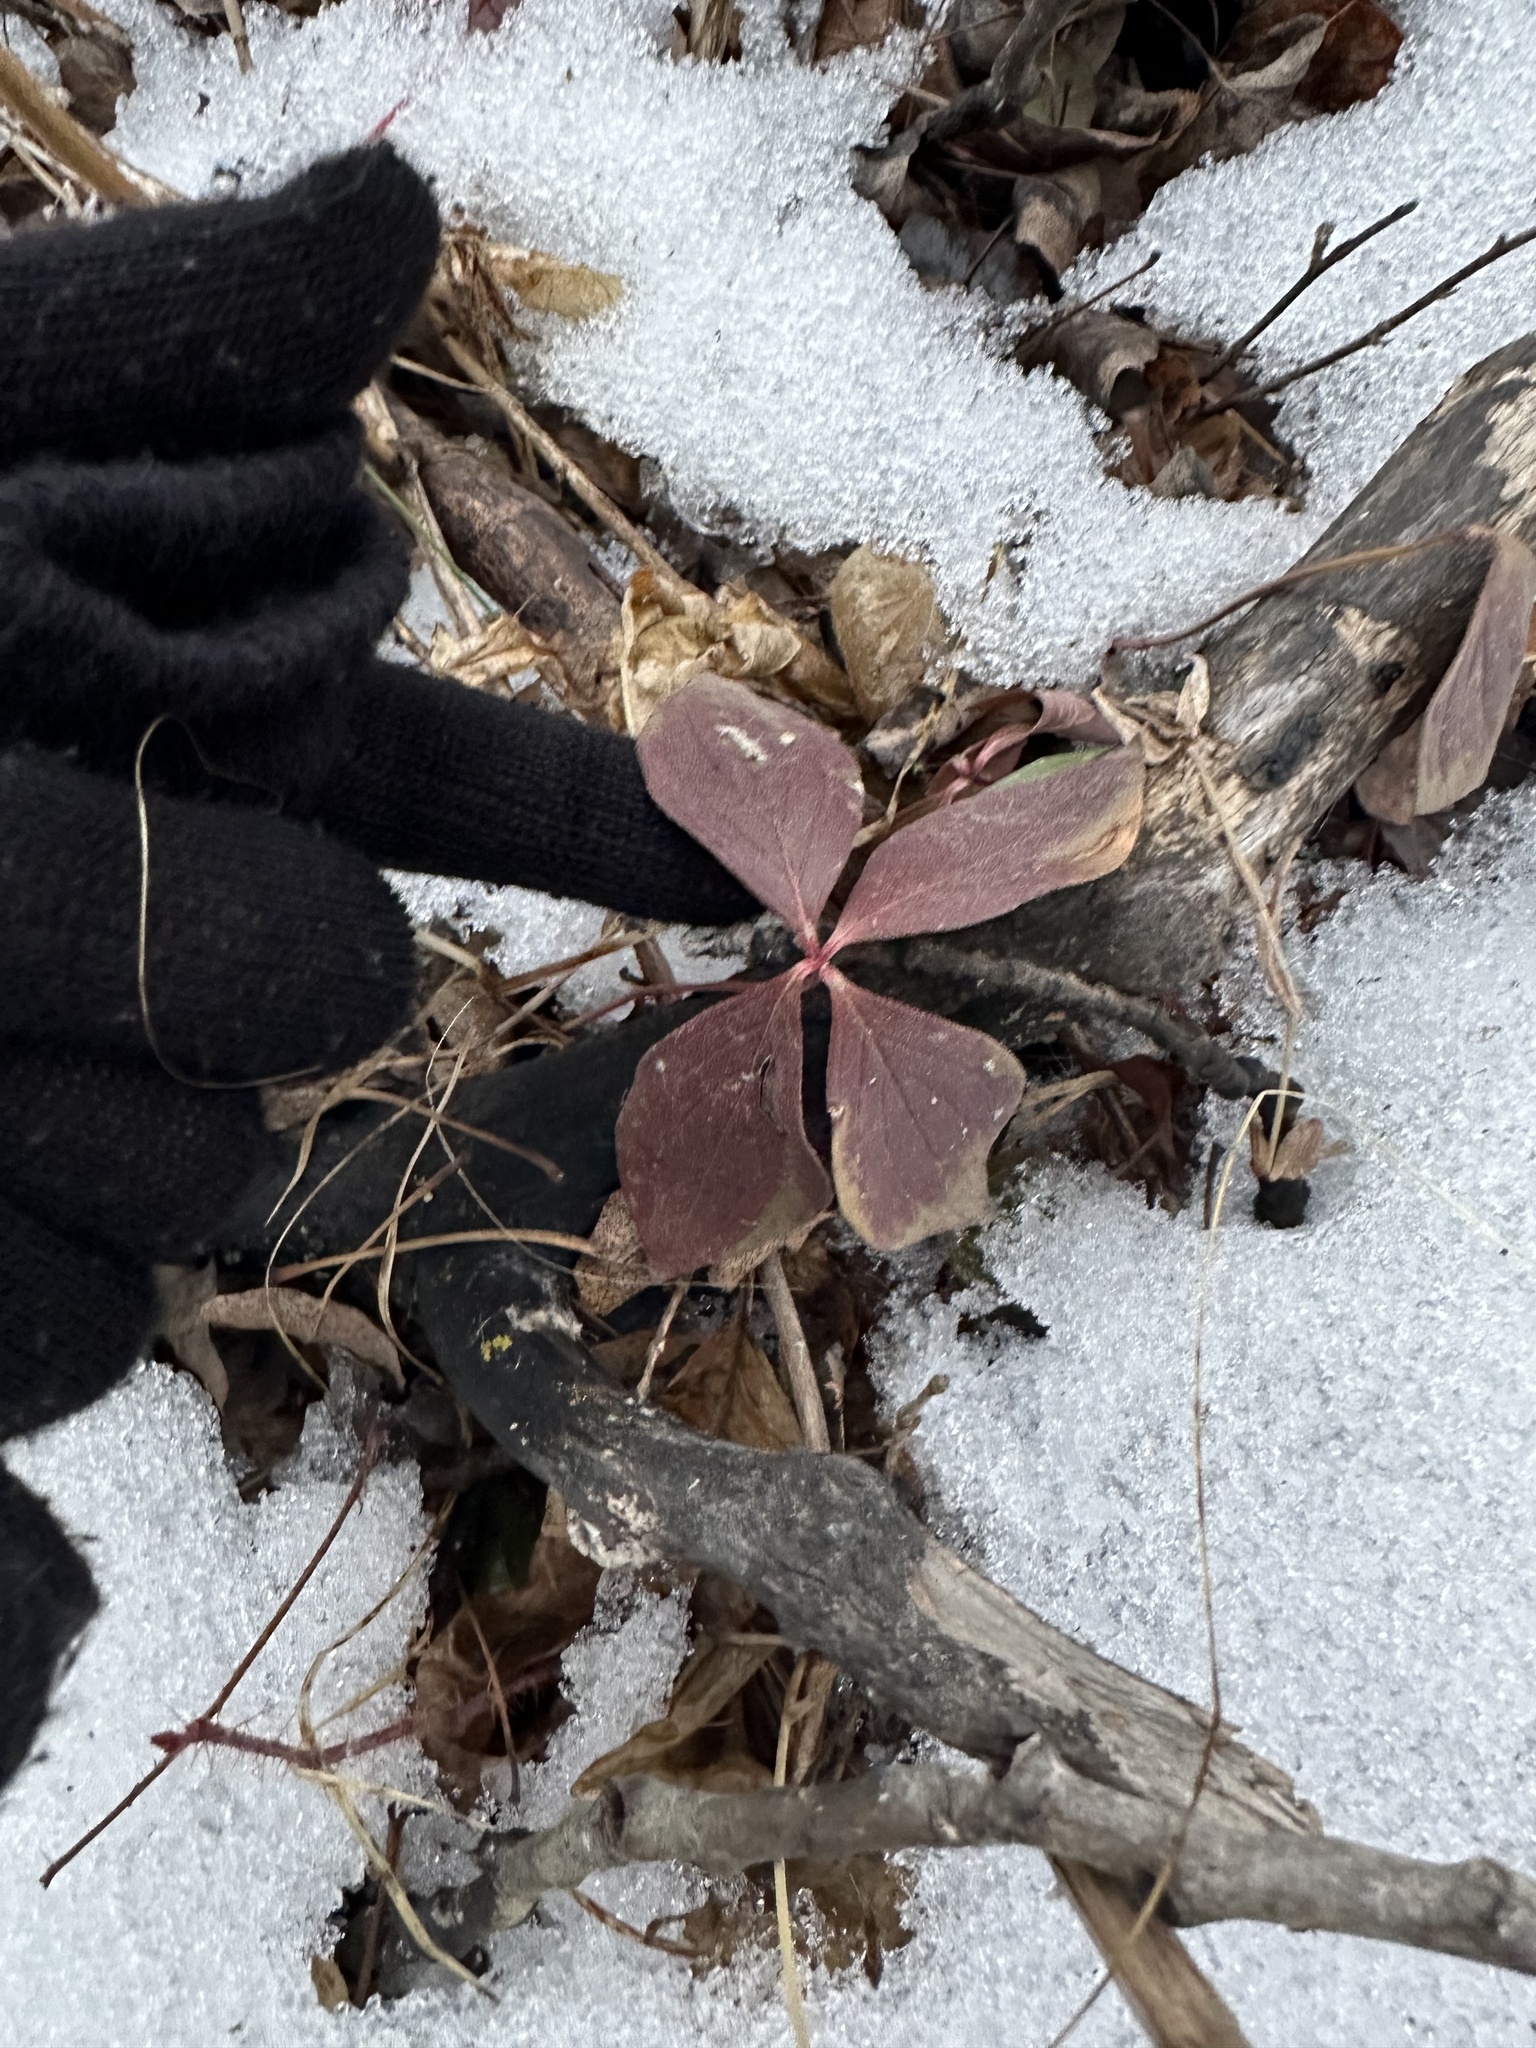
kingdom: Plantae
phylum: Tracheophyta
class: Magnoliopsida
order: Cornales
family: Cornaceae
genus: Cornus
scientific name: Cornus canadensis
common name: Creeping dogwood
